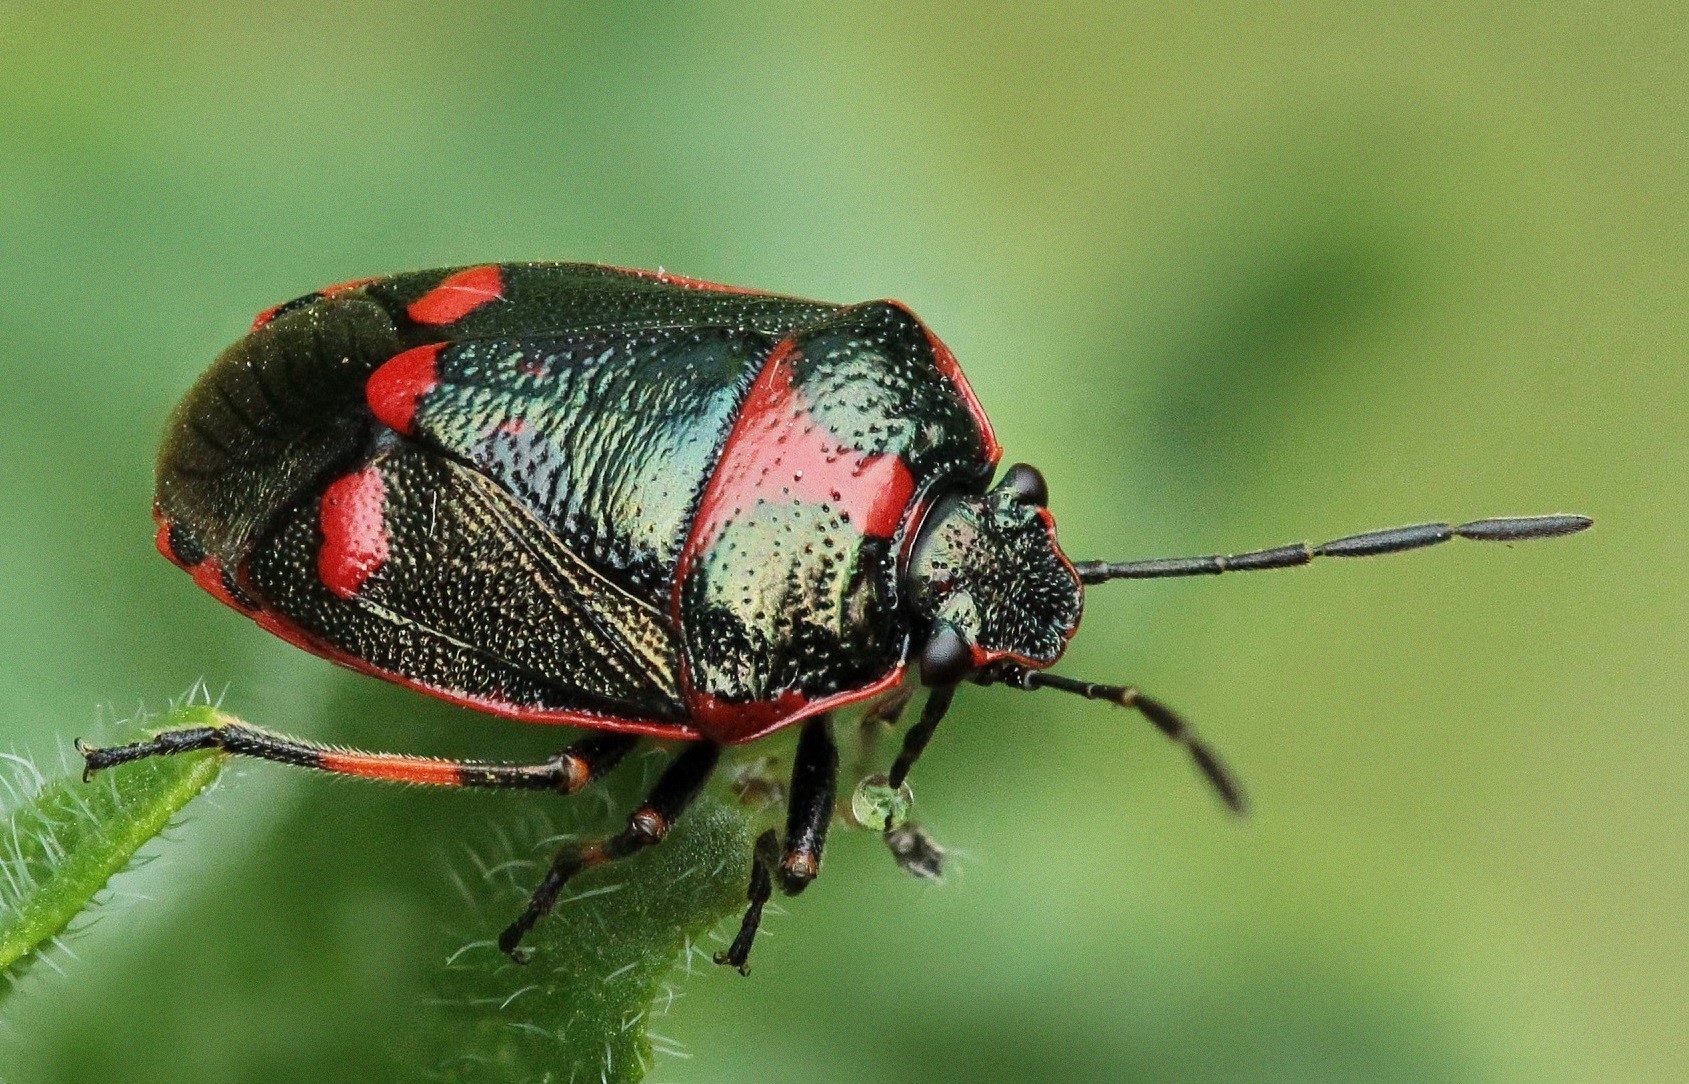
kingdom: Animalia
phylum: Arthropoda
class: Insecta
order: Hemiptera
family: Pentatomidae
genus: Eurydema
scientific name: Eurydema oleracea
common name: Cabbage bug
